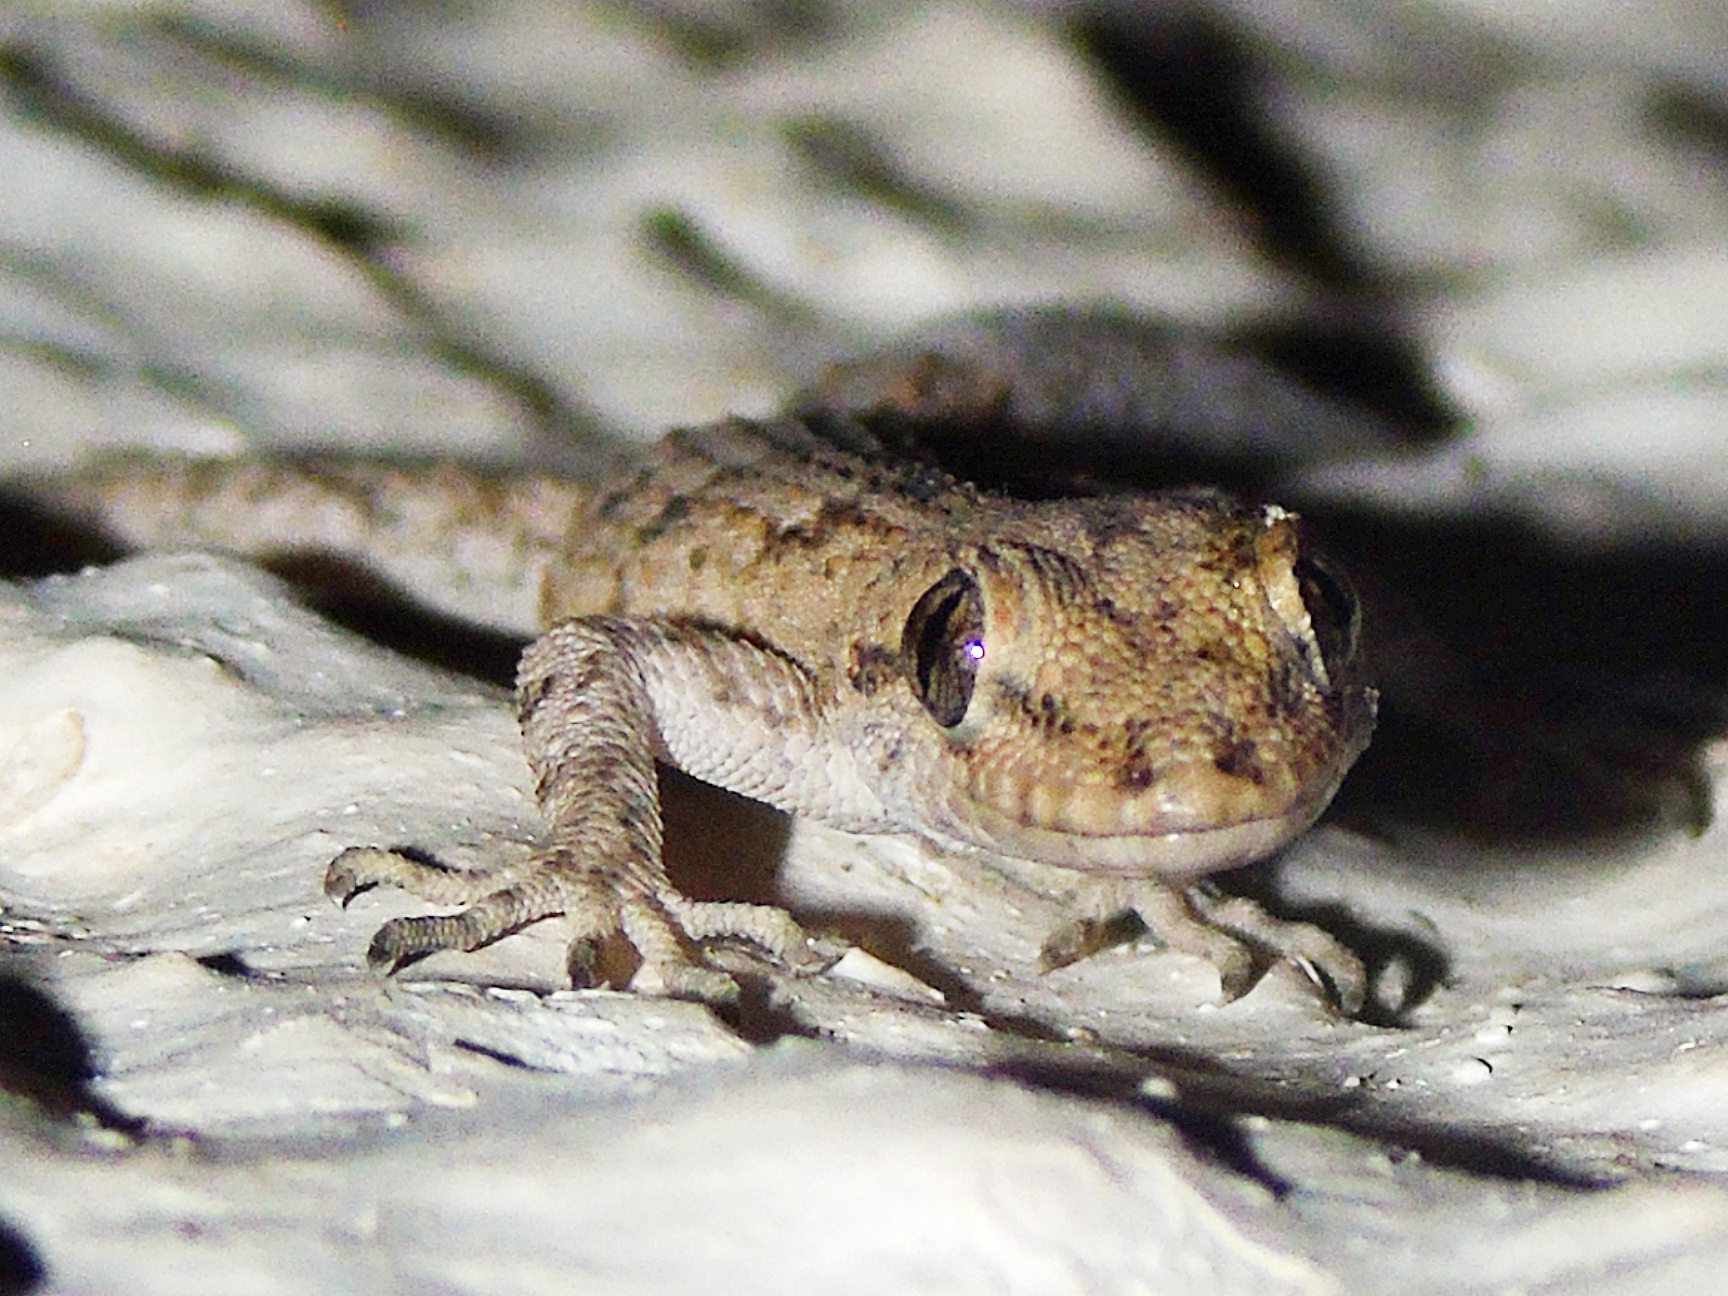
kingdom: Animalia
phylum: Chordata
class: Squamata
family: Gekkonidae
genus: Mediodactylus
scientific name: Mediodactylus kotschyi
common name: Kotschy's gecko
